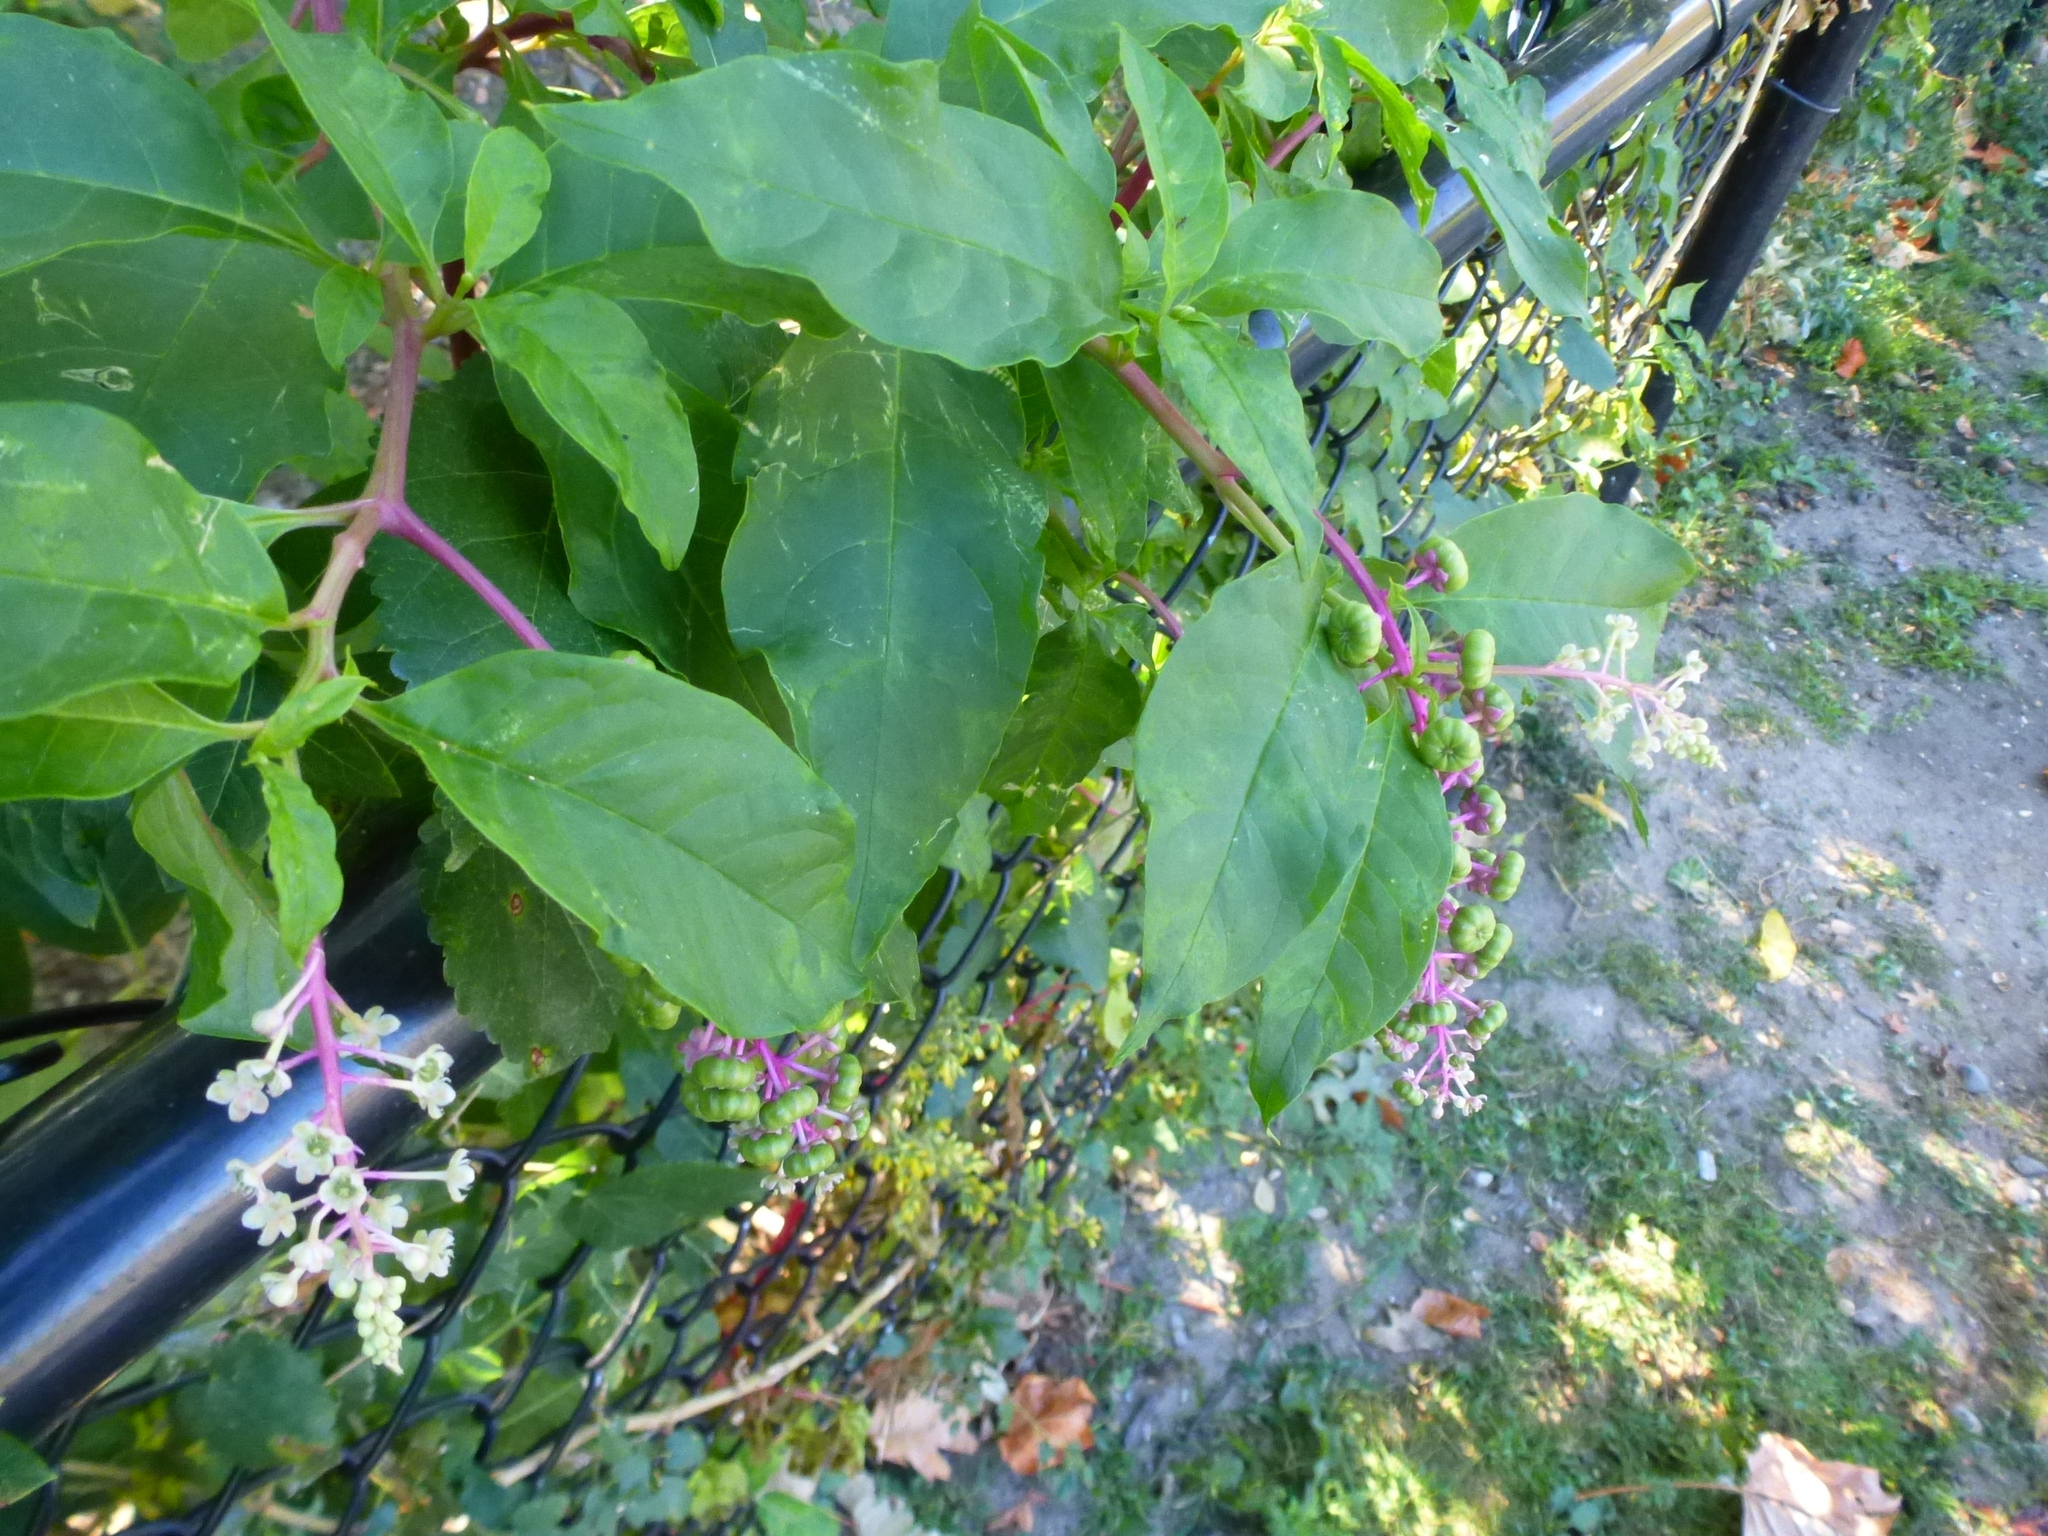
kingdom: Plantae
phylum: Tracheophyta
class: Magnoliopsida
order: Caryophyllales
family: Phytolaccaceae
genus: Phytolacca
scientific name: Phytolacca americana
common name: American pokeweed
